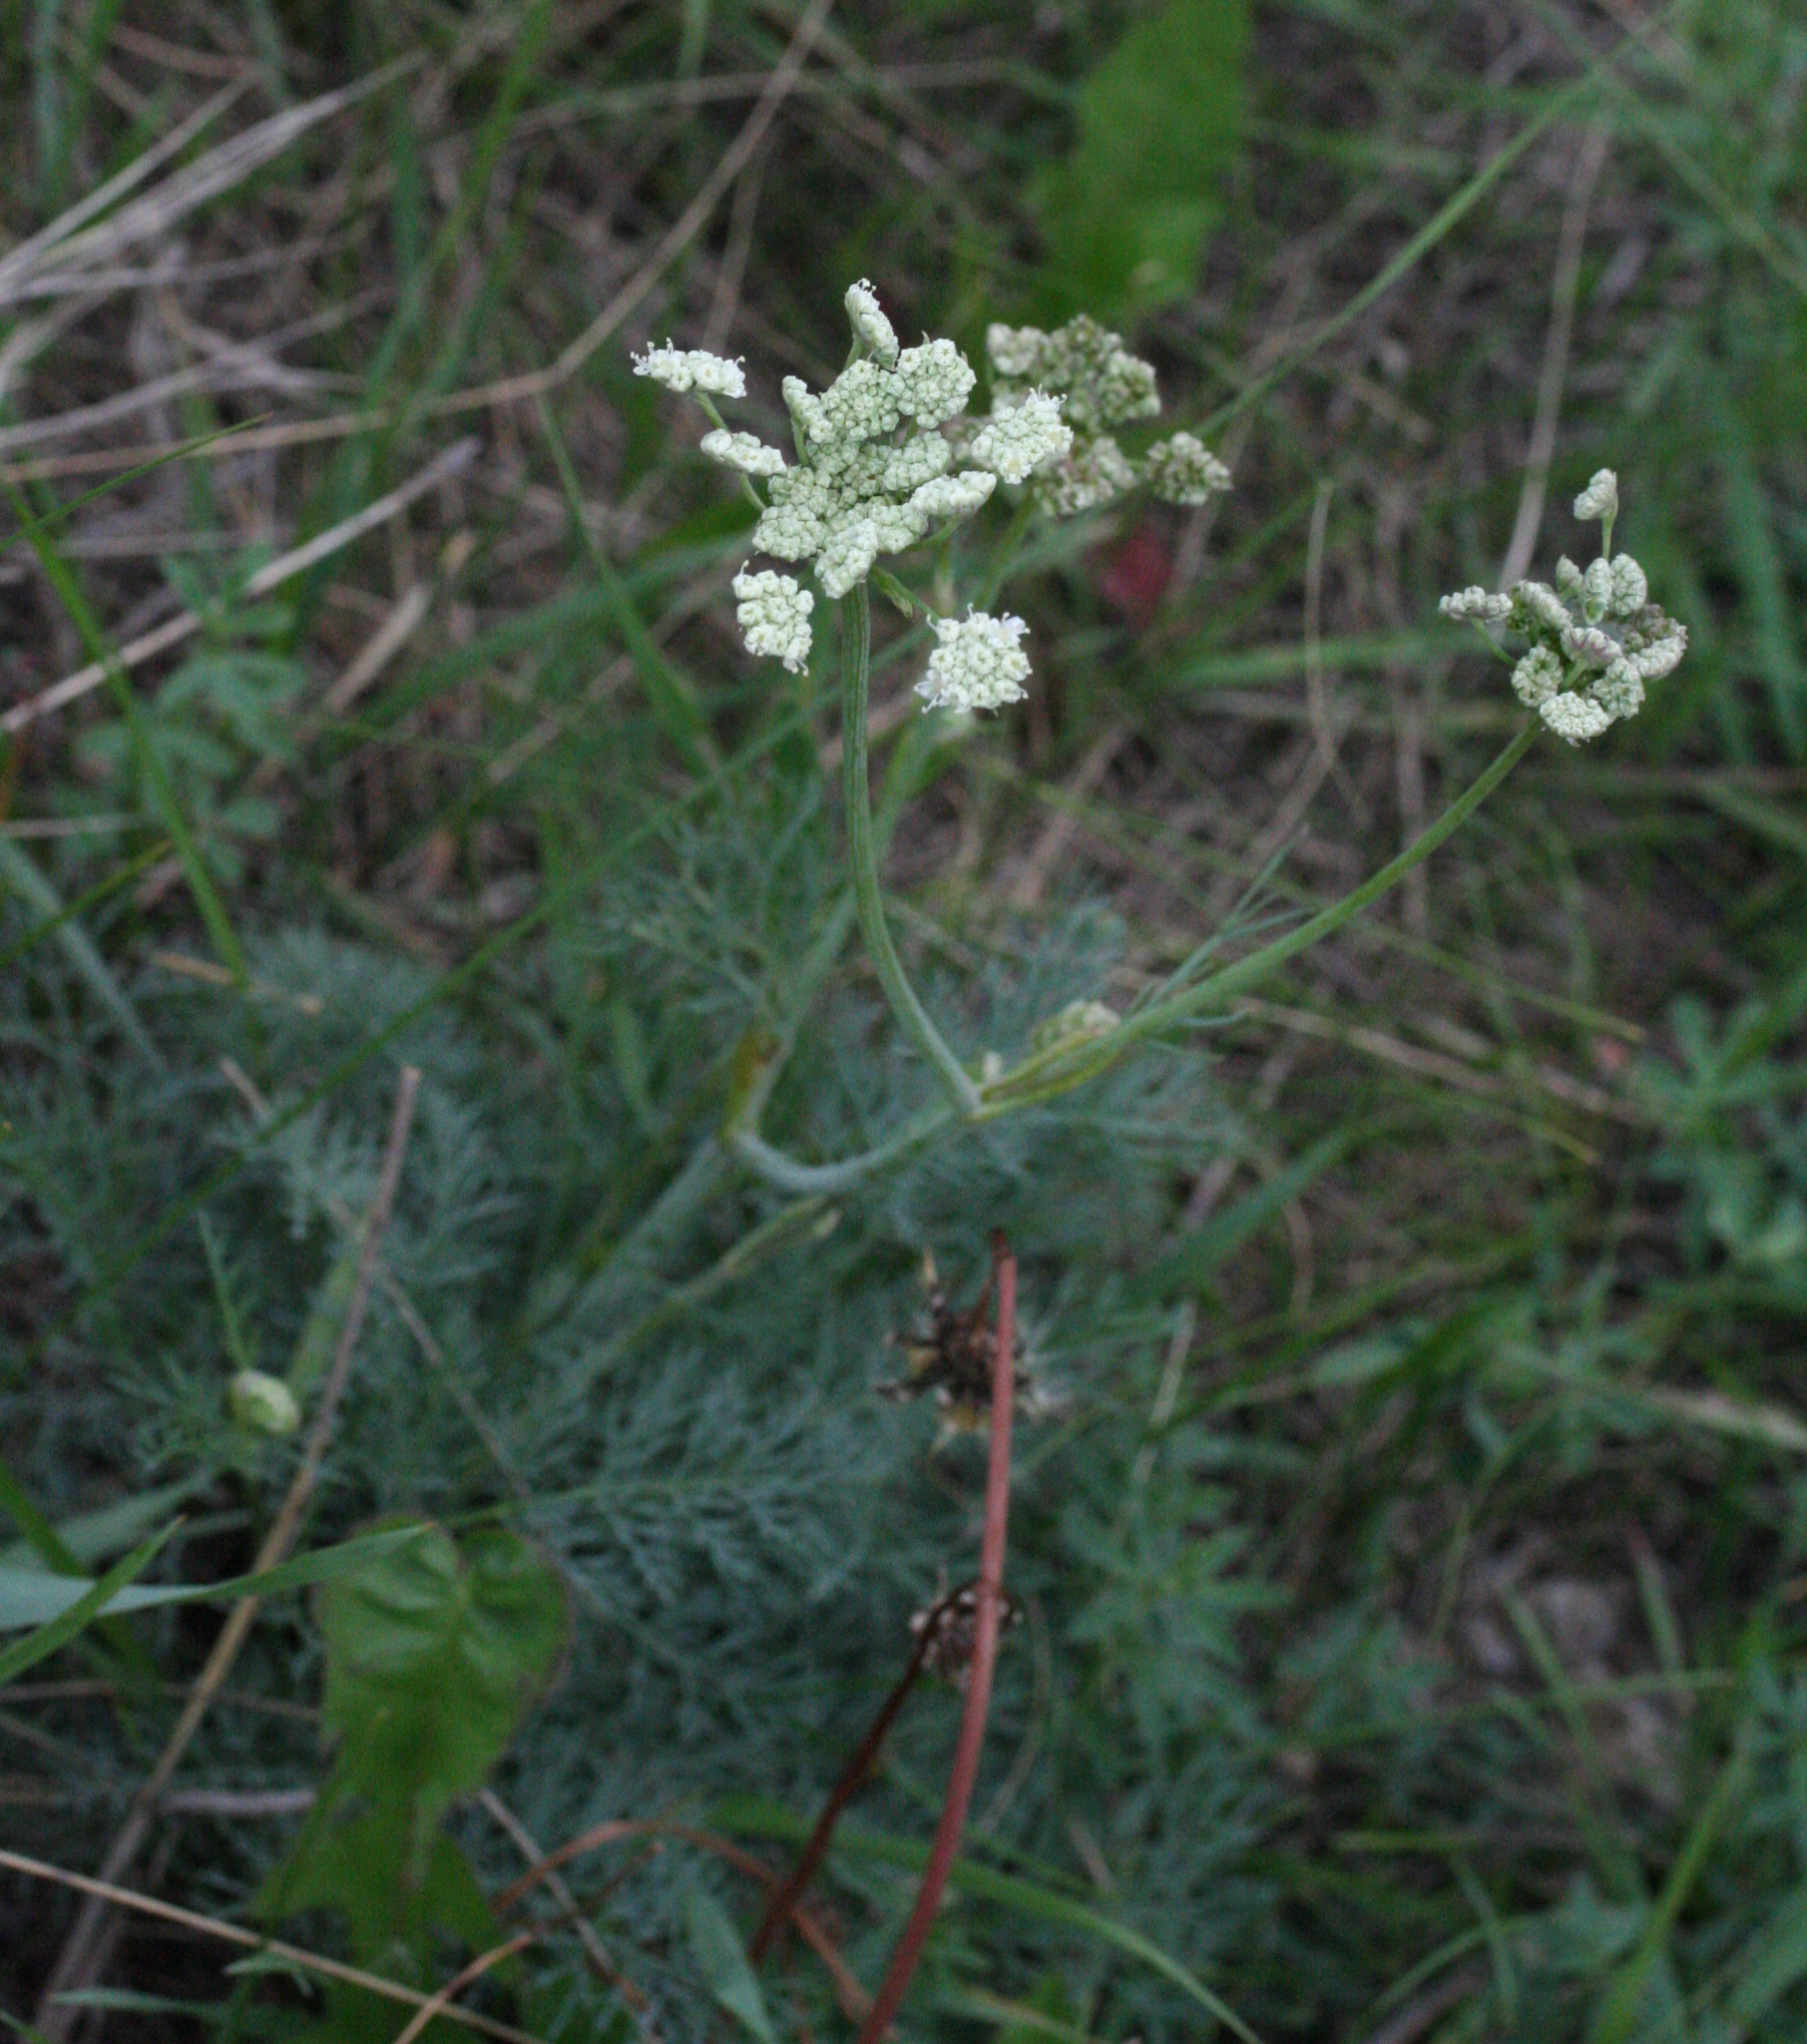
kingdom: Plantae
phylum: Tracheophyta
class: Magnoliopsida
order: Apiales
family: Apiaceae
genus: Seseli
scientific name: Seseli ledebourii
